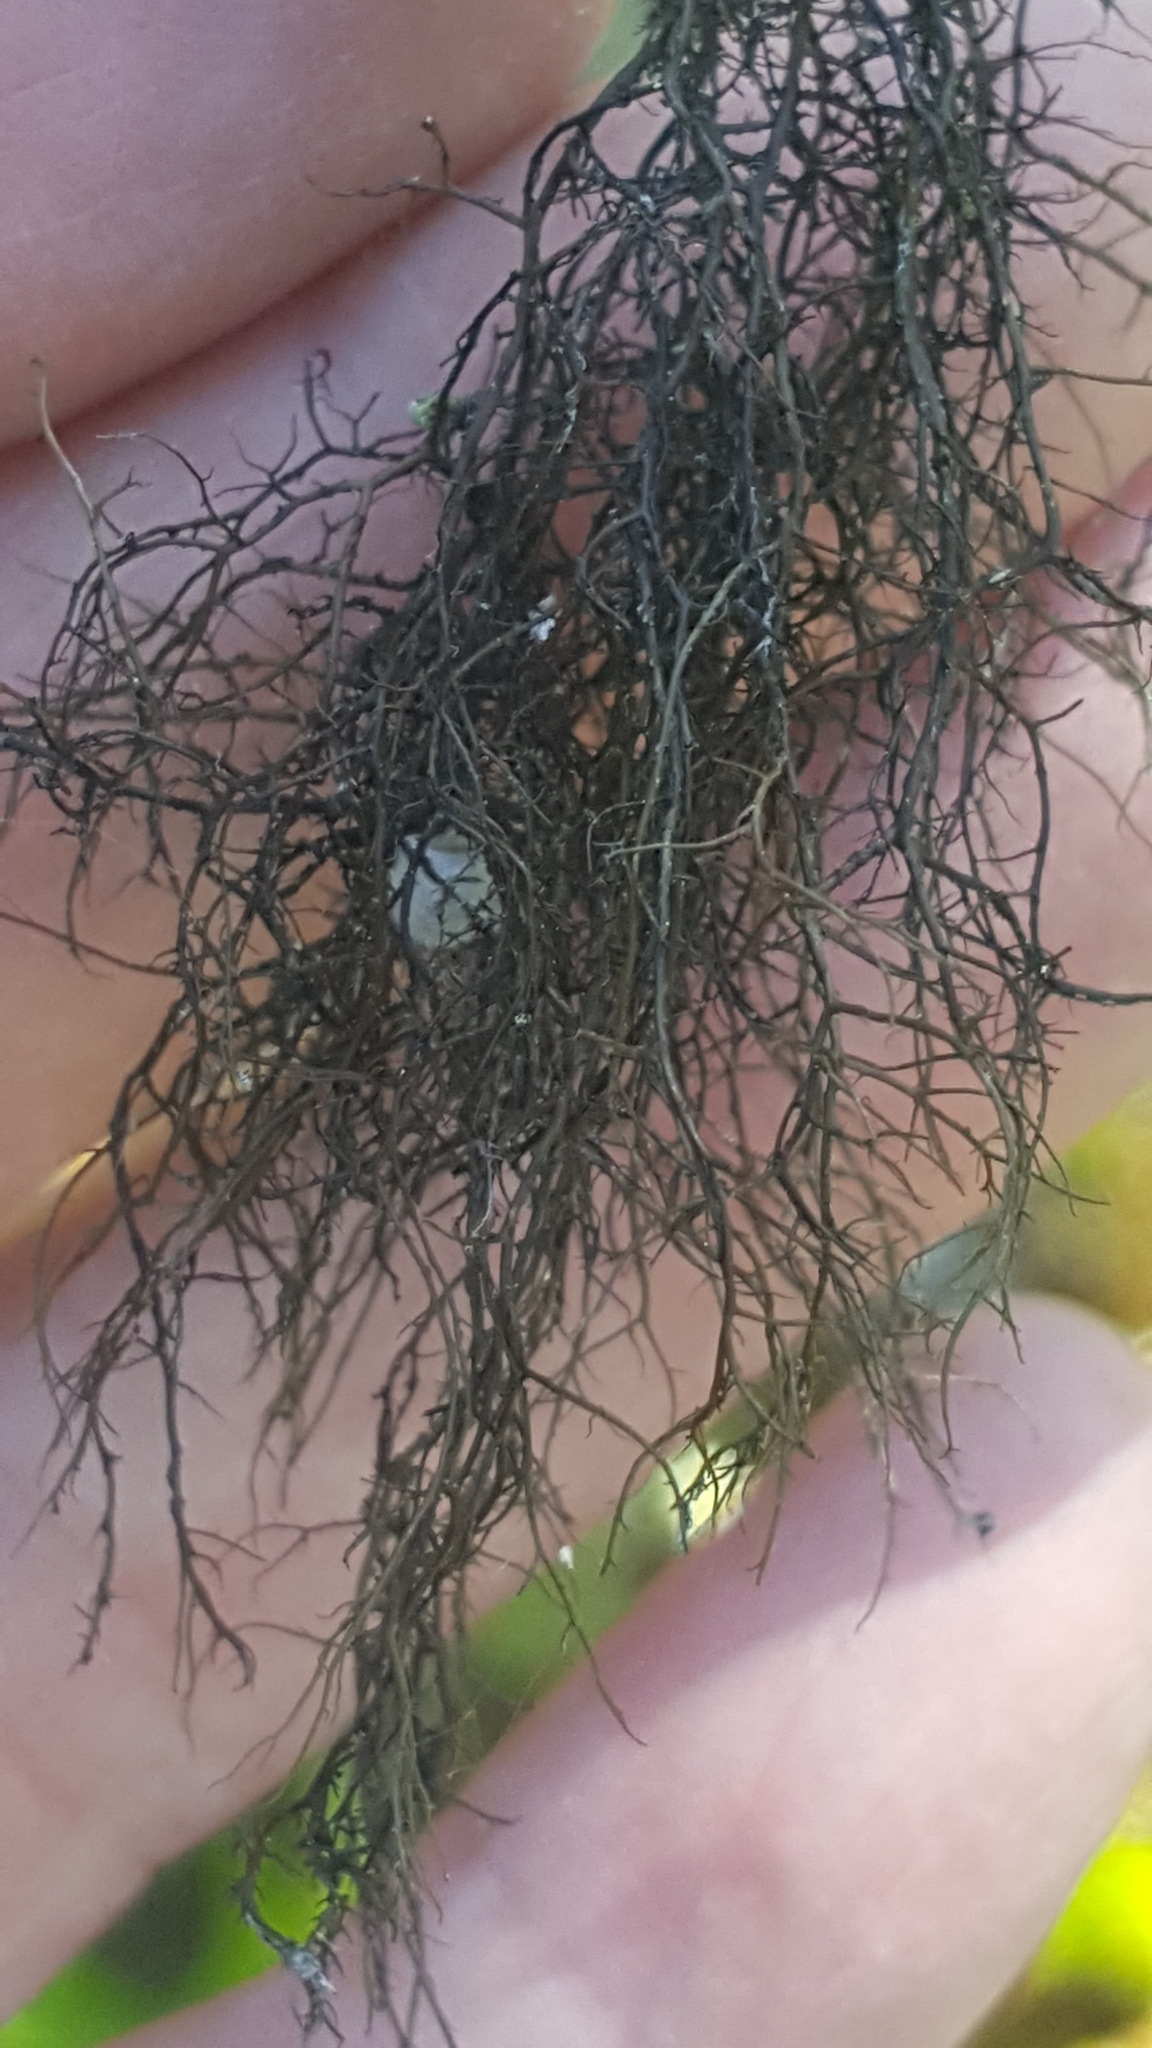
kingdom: Fungi
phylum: Ascomycota
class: Lecanoromycetes
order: Lecanorales
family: Parmeliaceae
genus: Bryoria
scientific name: Bryoria furcellata
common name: Forked hair-lichen
